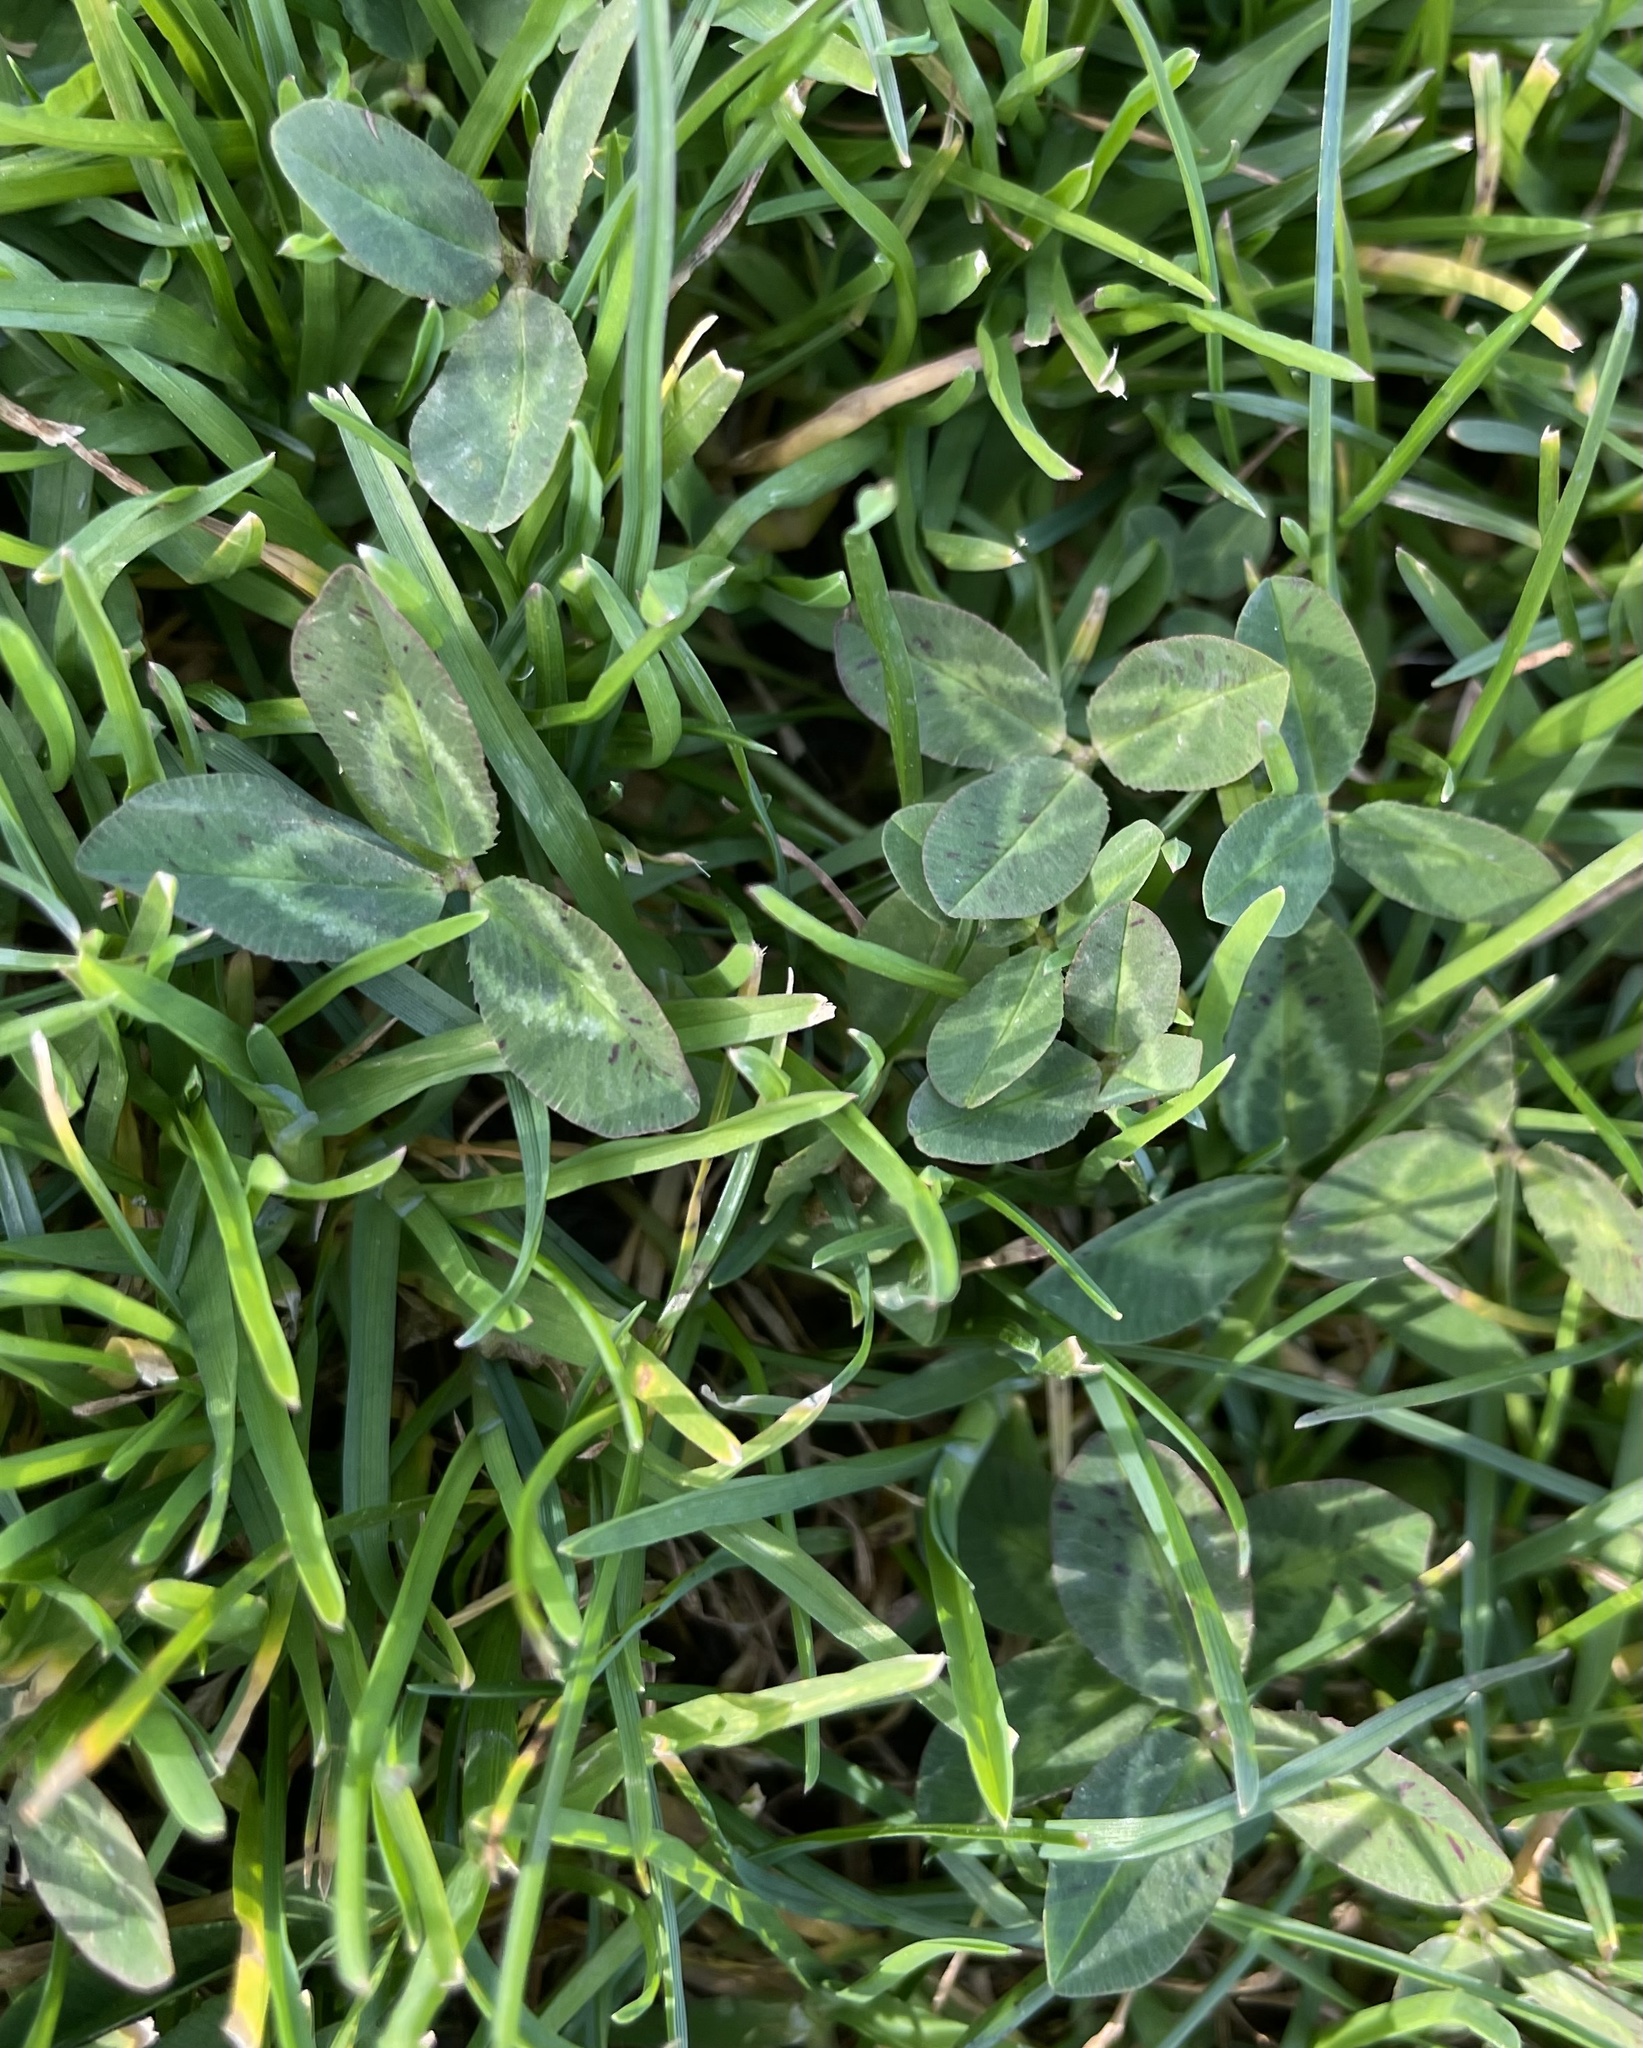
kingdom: Plantae
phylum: Tracheophyta
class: Magnoliopsida
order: Fabales
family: Fabaceae
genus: Trifolium
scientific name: Trifolium repens
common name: White clover
